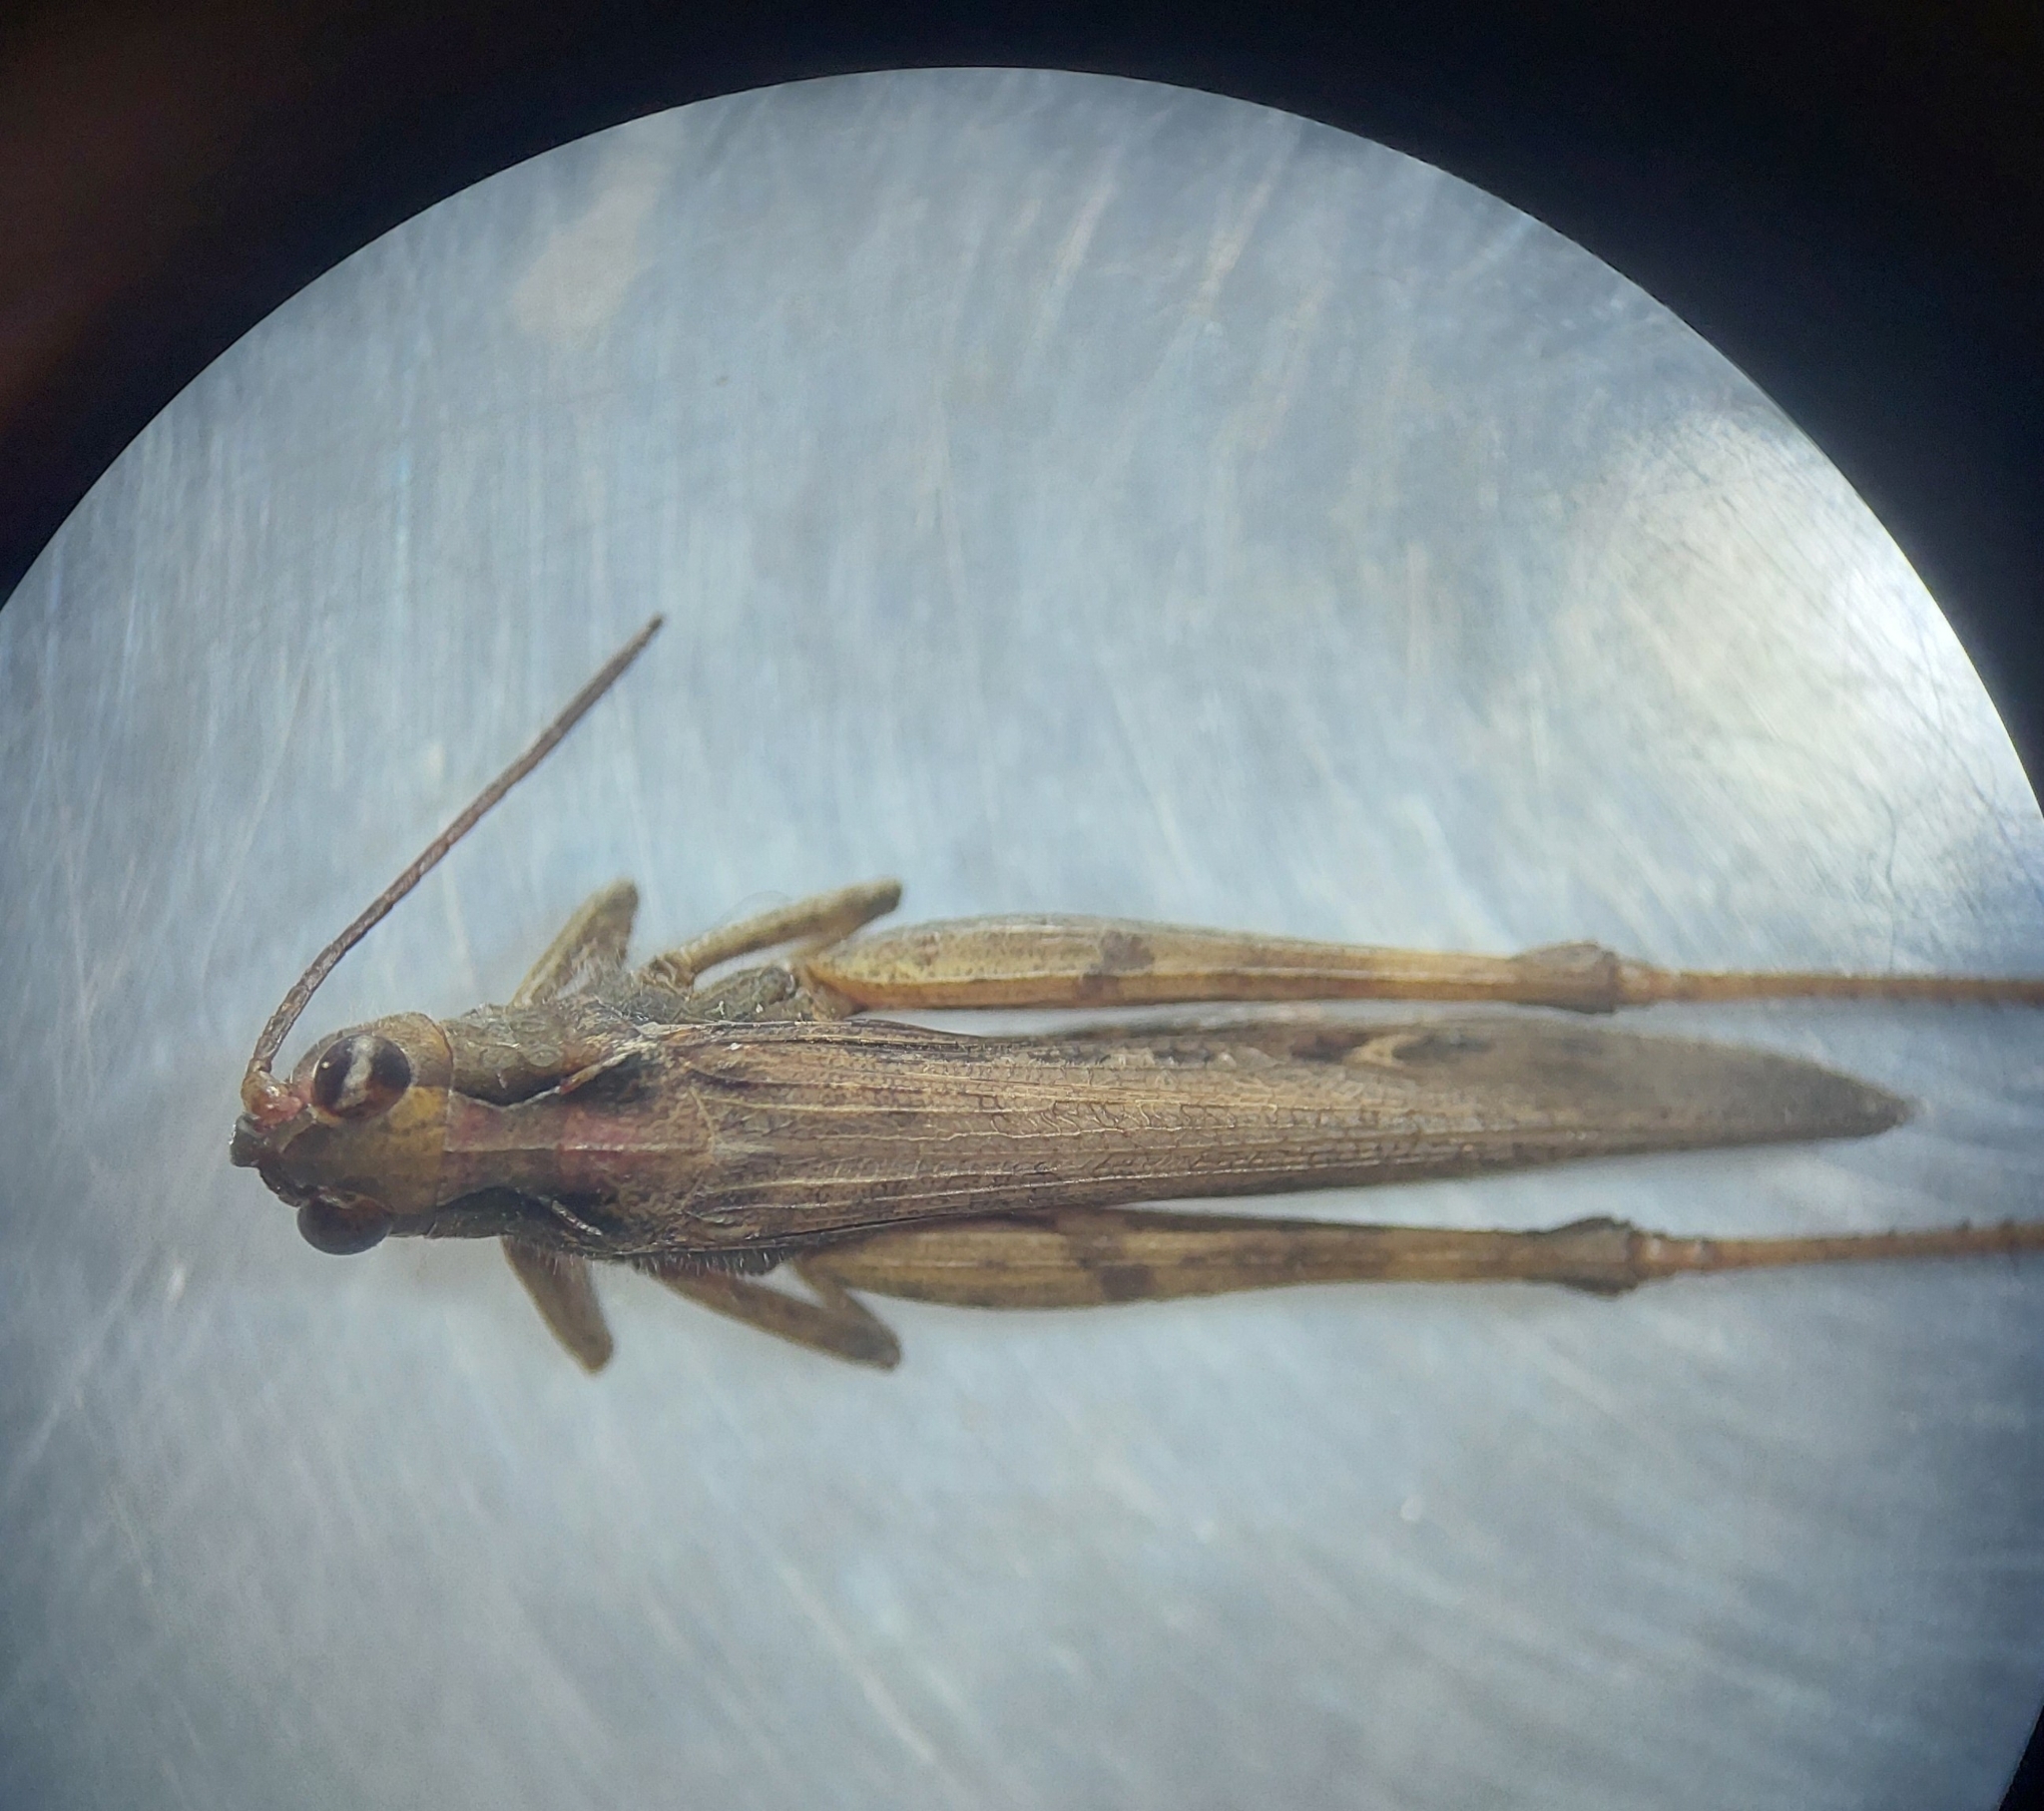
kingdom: Animalia
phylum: Arthropoda
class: Insecta
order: Orthoptera
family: Acrididae
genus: Chorthippus
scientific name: Chorthippus brunneus
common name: Field grasshopper
